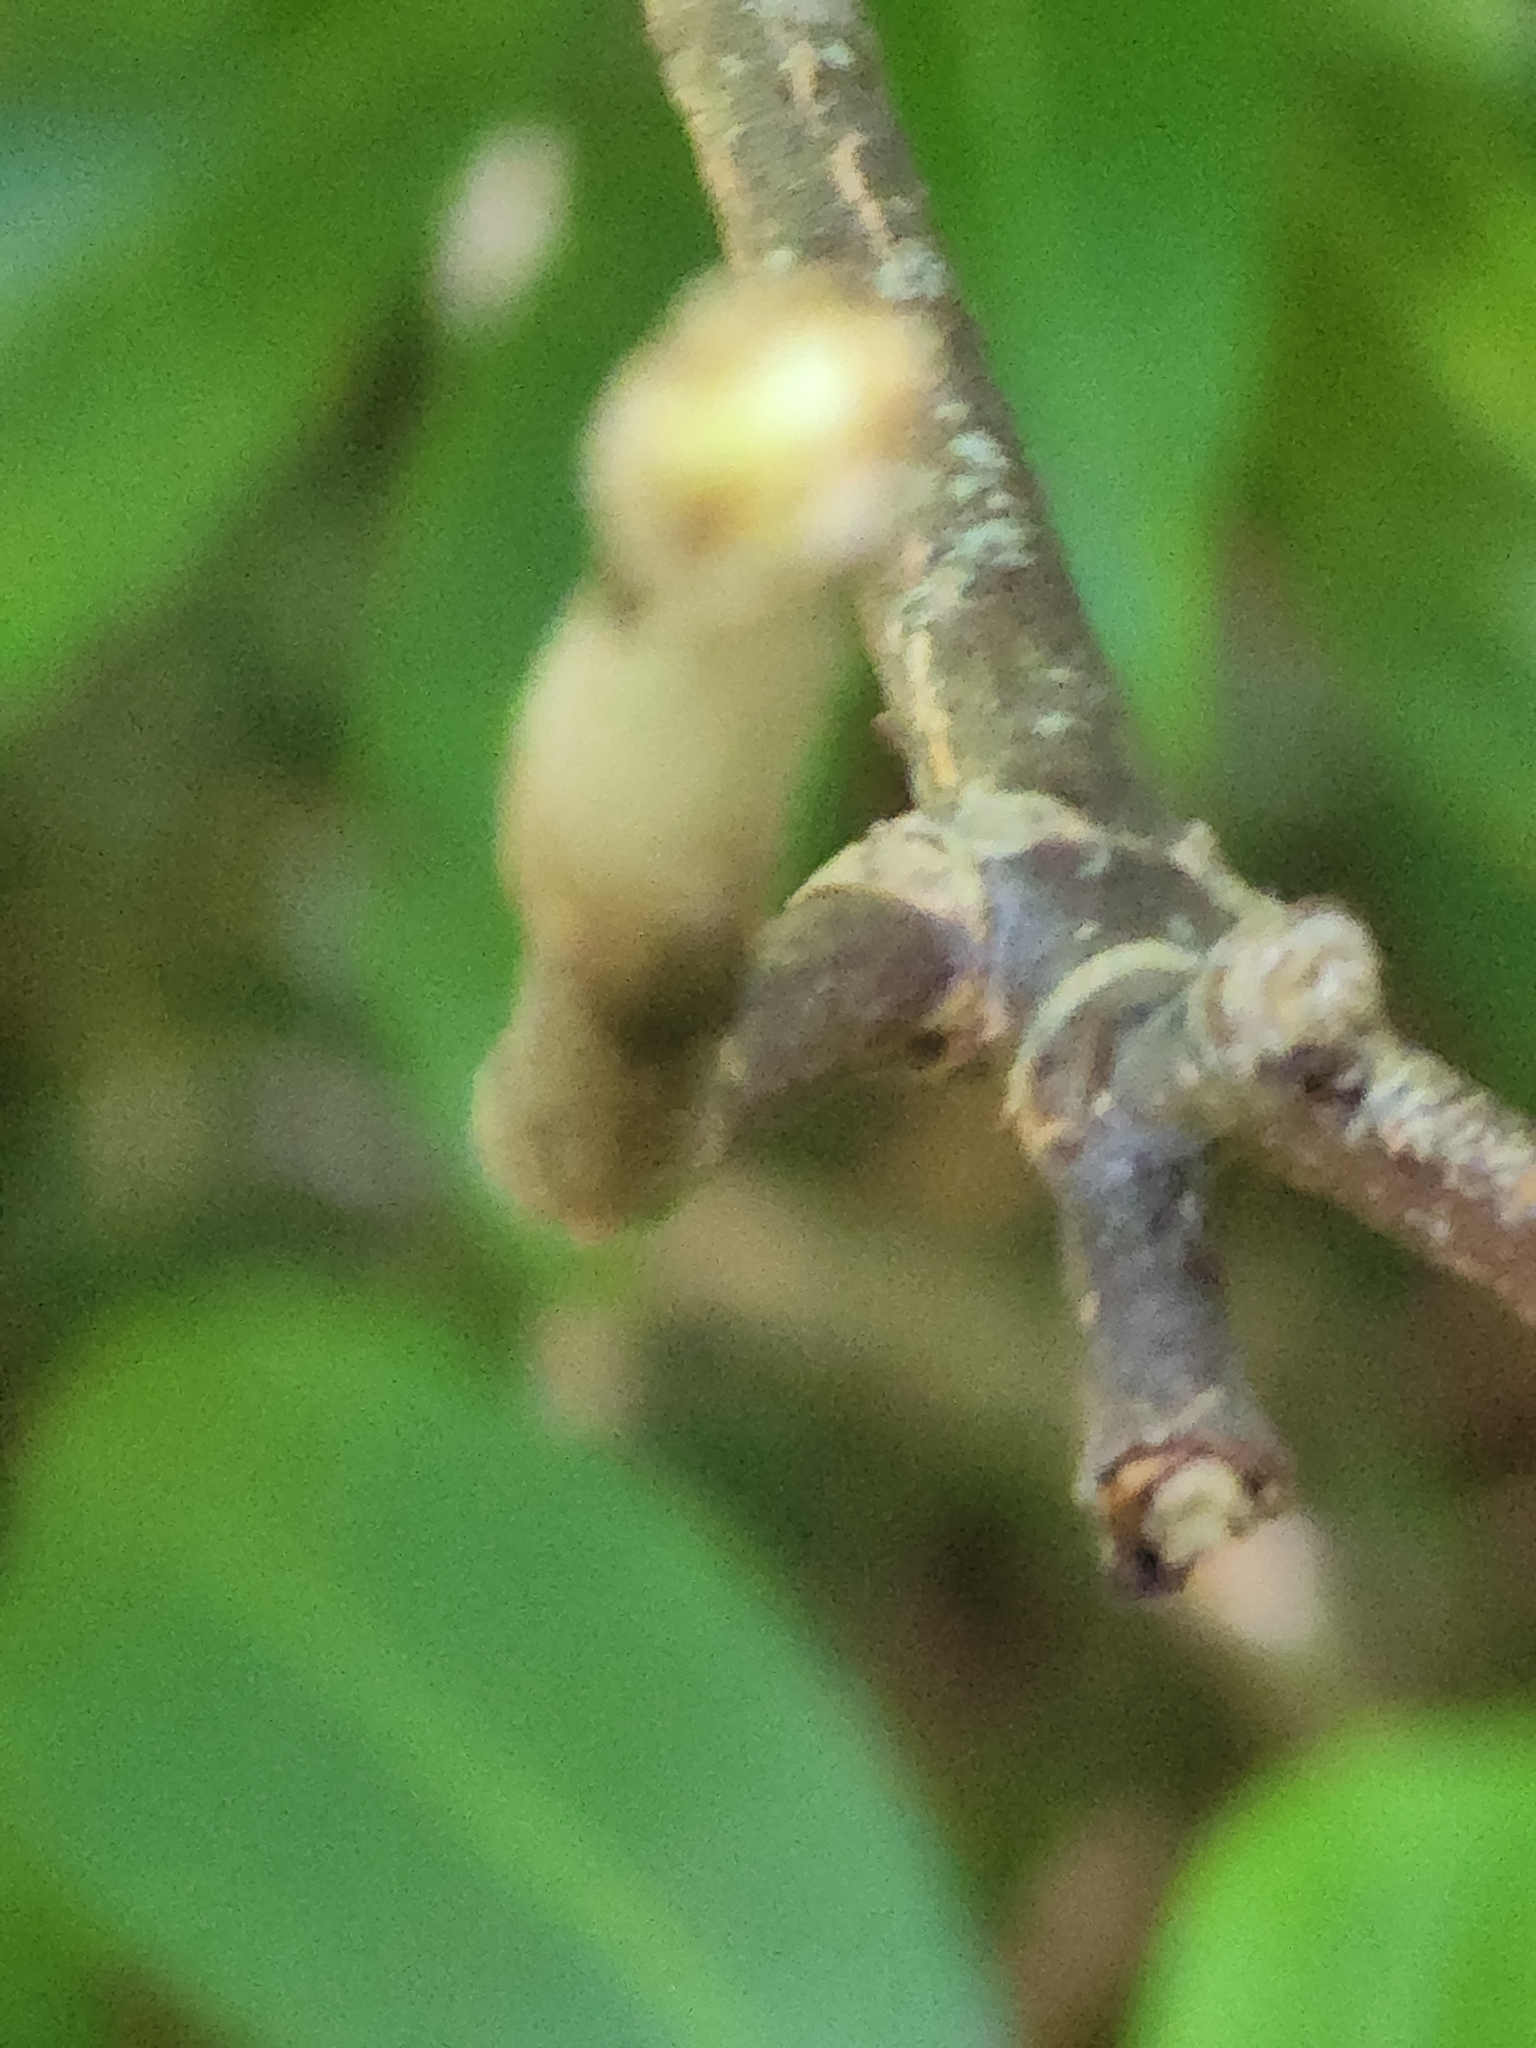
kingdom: Plantae
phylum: Tracheophyta
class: Magnoliopsida
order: Dipsacales
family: Viburnaceae
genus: Viburnum
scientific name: Viburnum lantanoides
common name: Hobblebush
